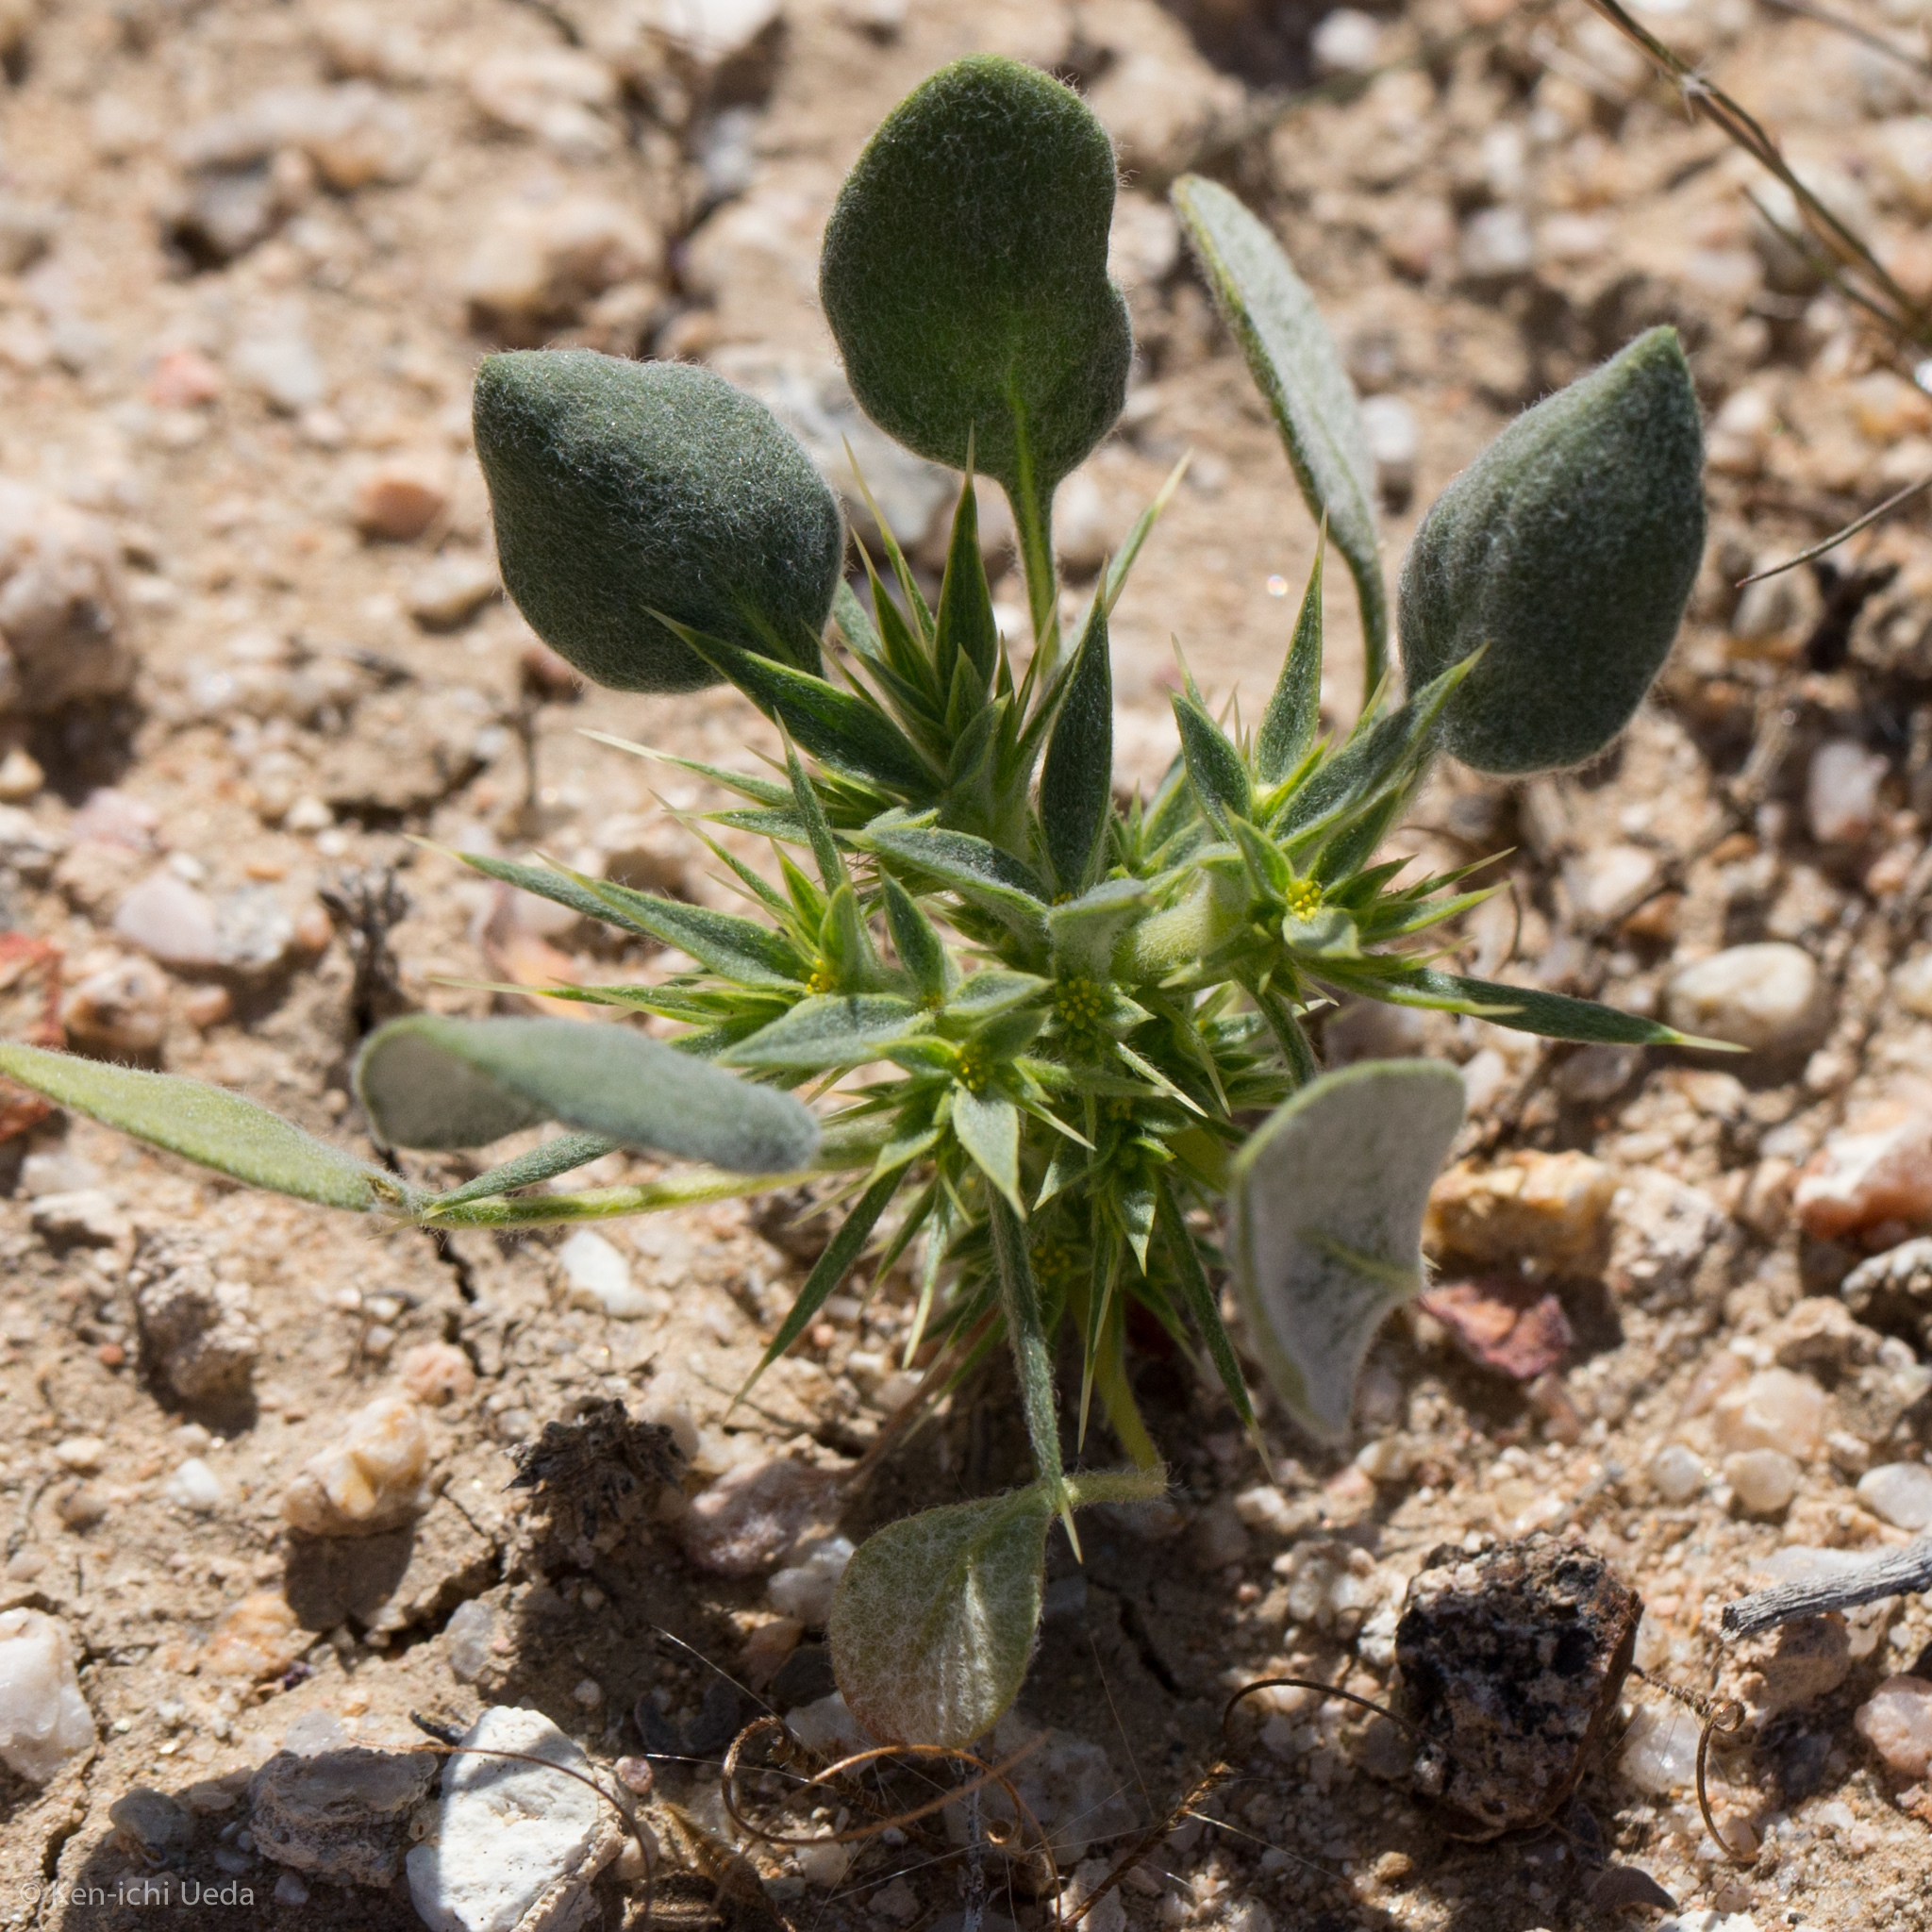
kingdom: Plantae
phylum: Tracheophyta
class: Magnoliopsida
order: Caryophyllales
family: Polygonaceae
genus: Chorizanthe
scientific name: Chorizanthe rigida
